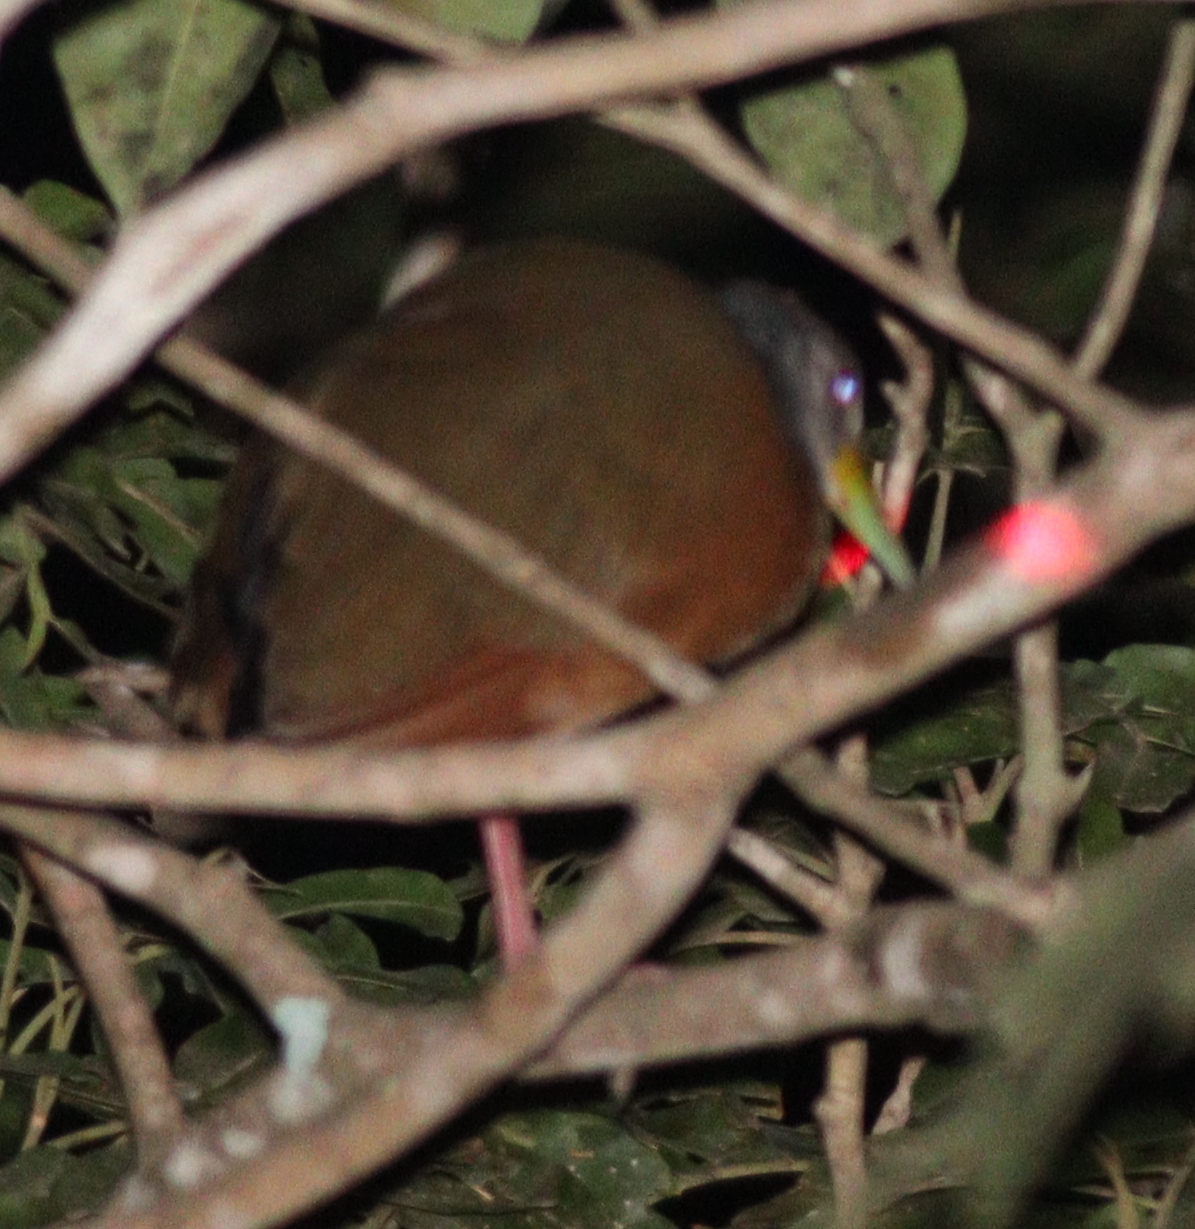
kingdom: Animalia
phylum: Chordata
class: Aves
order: Gruiformes
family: Rallidae
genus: Aramides
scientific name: Aramides cajanea
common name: Gray-necked wood-rail
